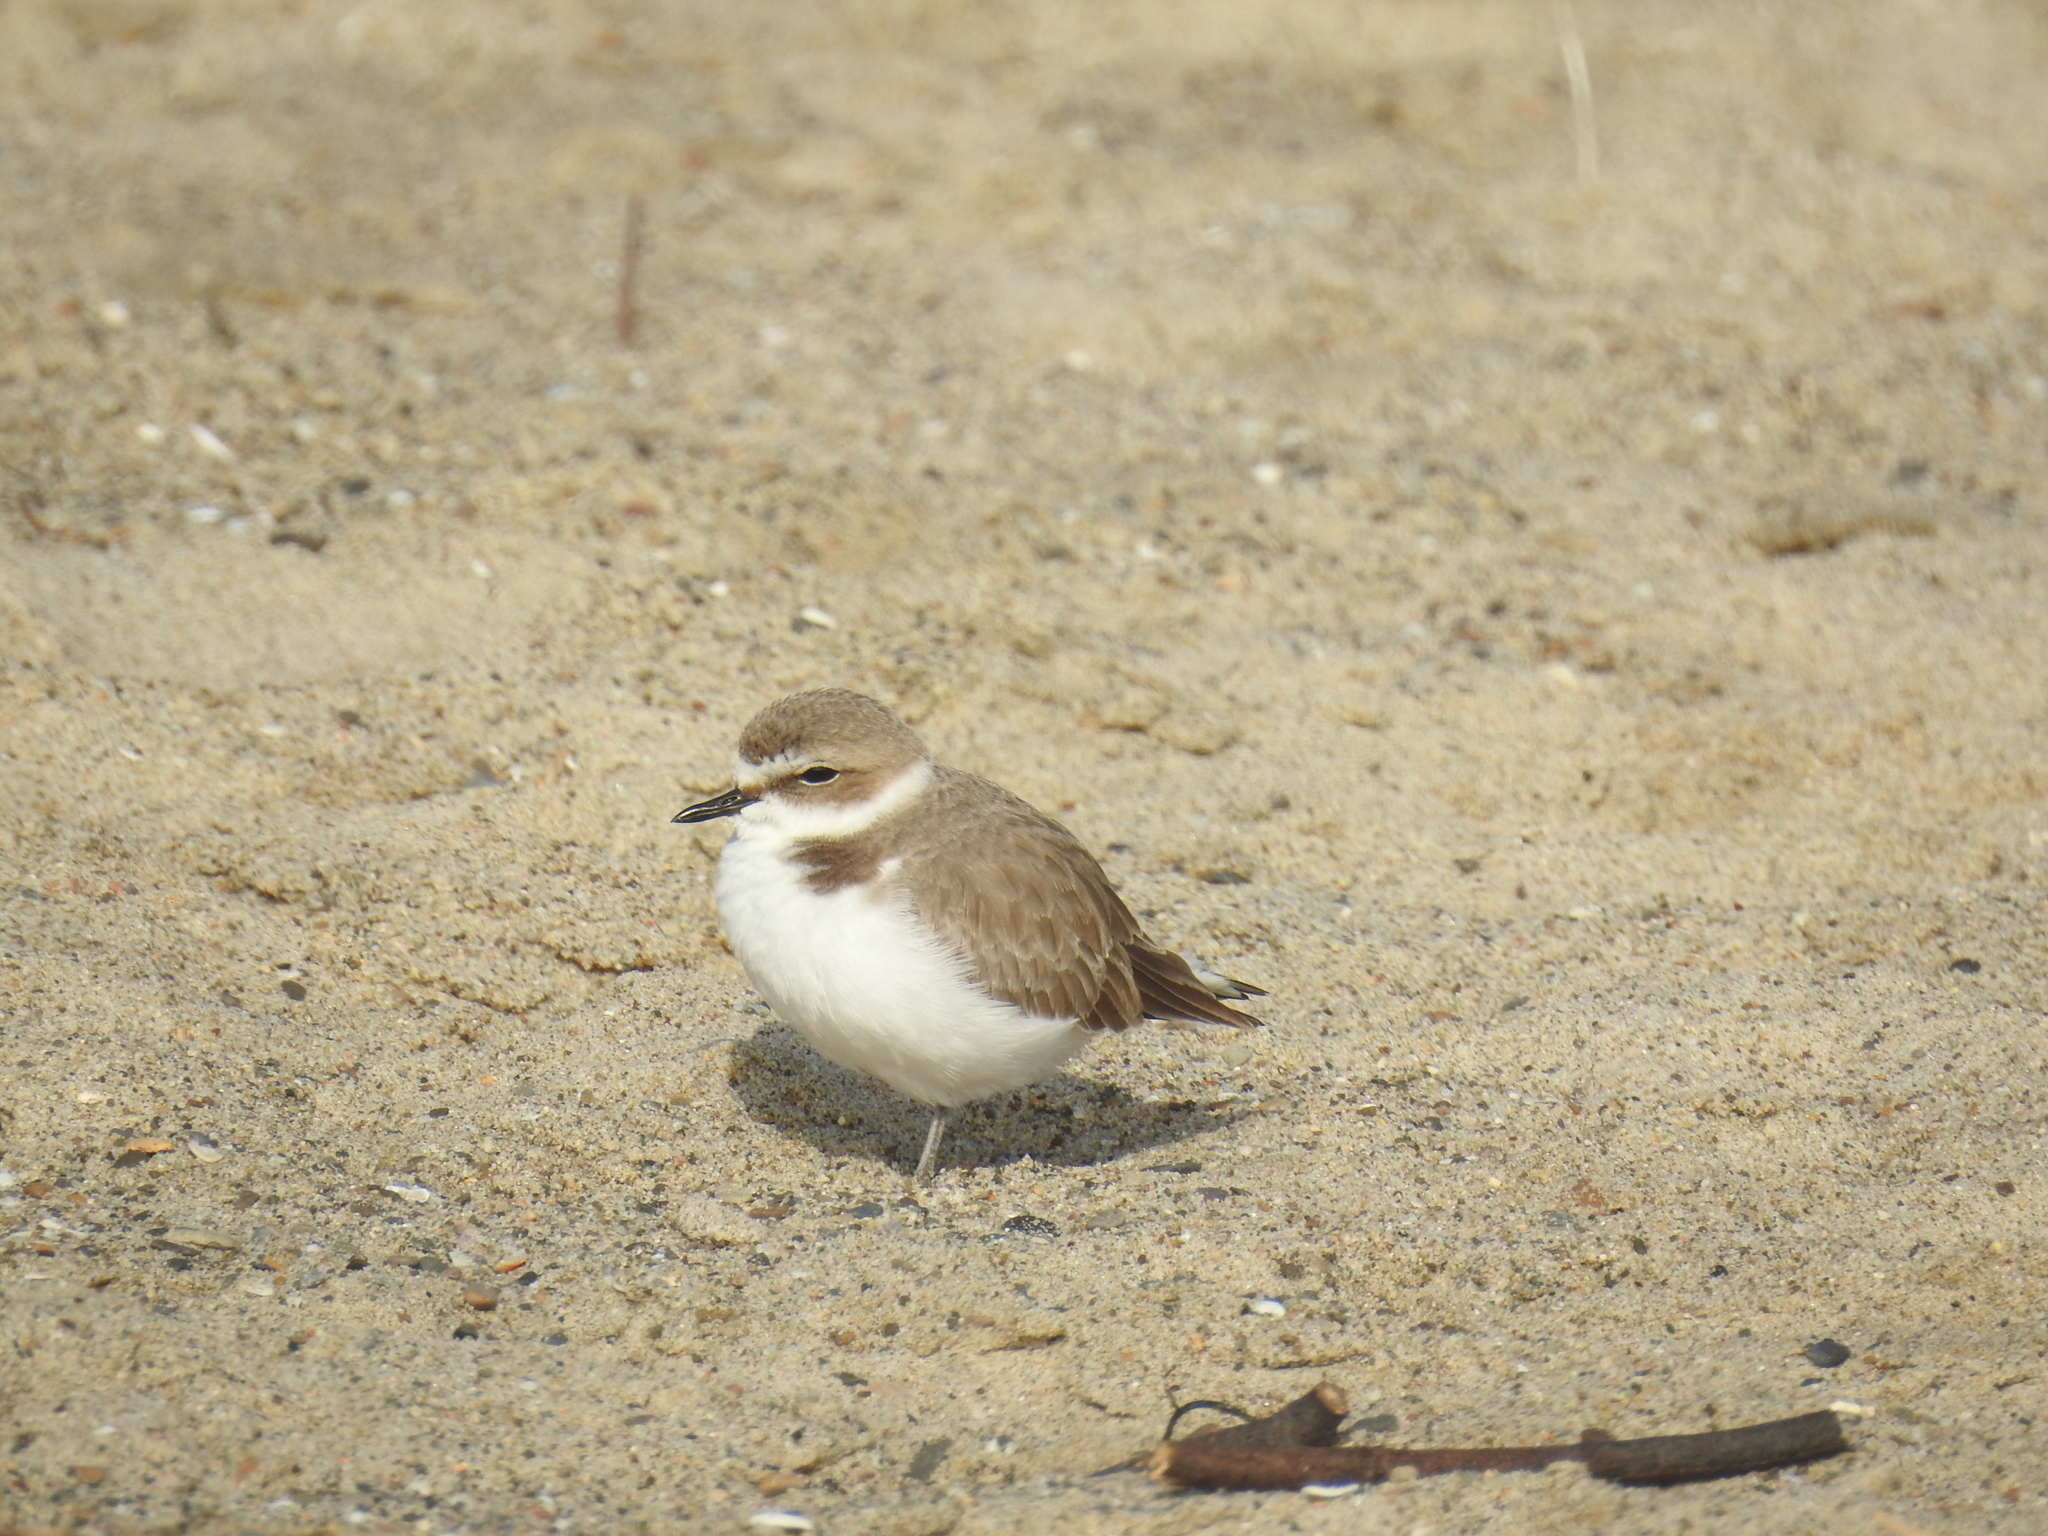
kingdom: Animalia
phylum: Chordata
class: Aves
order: Charadriiformes
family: Charadriidae
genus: Anarhynchus
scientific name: Anarhynchus
